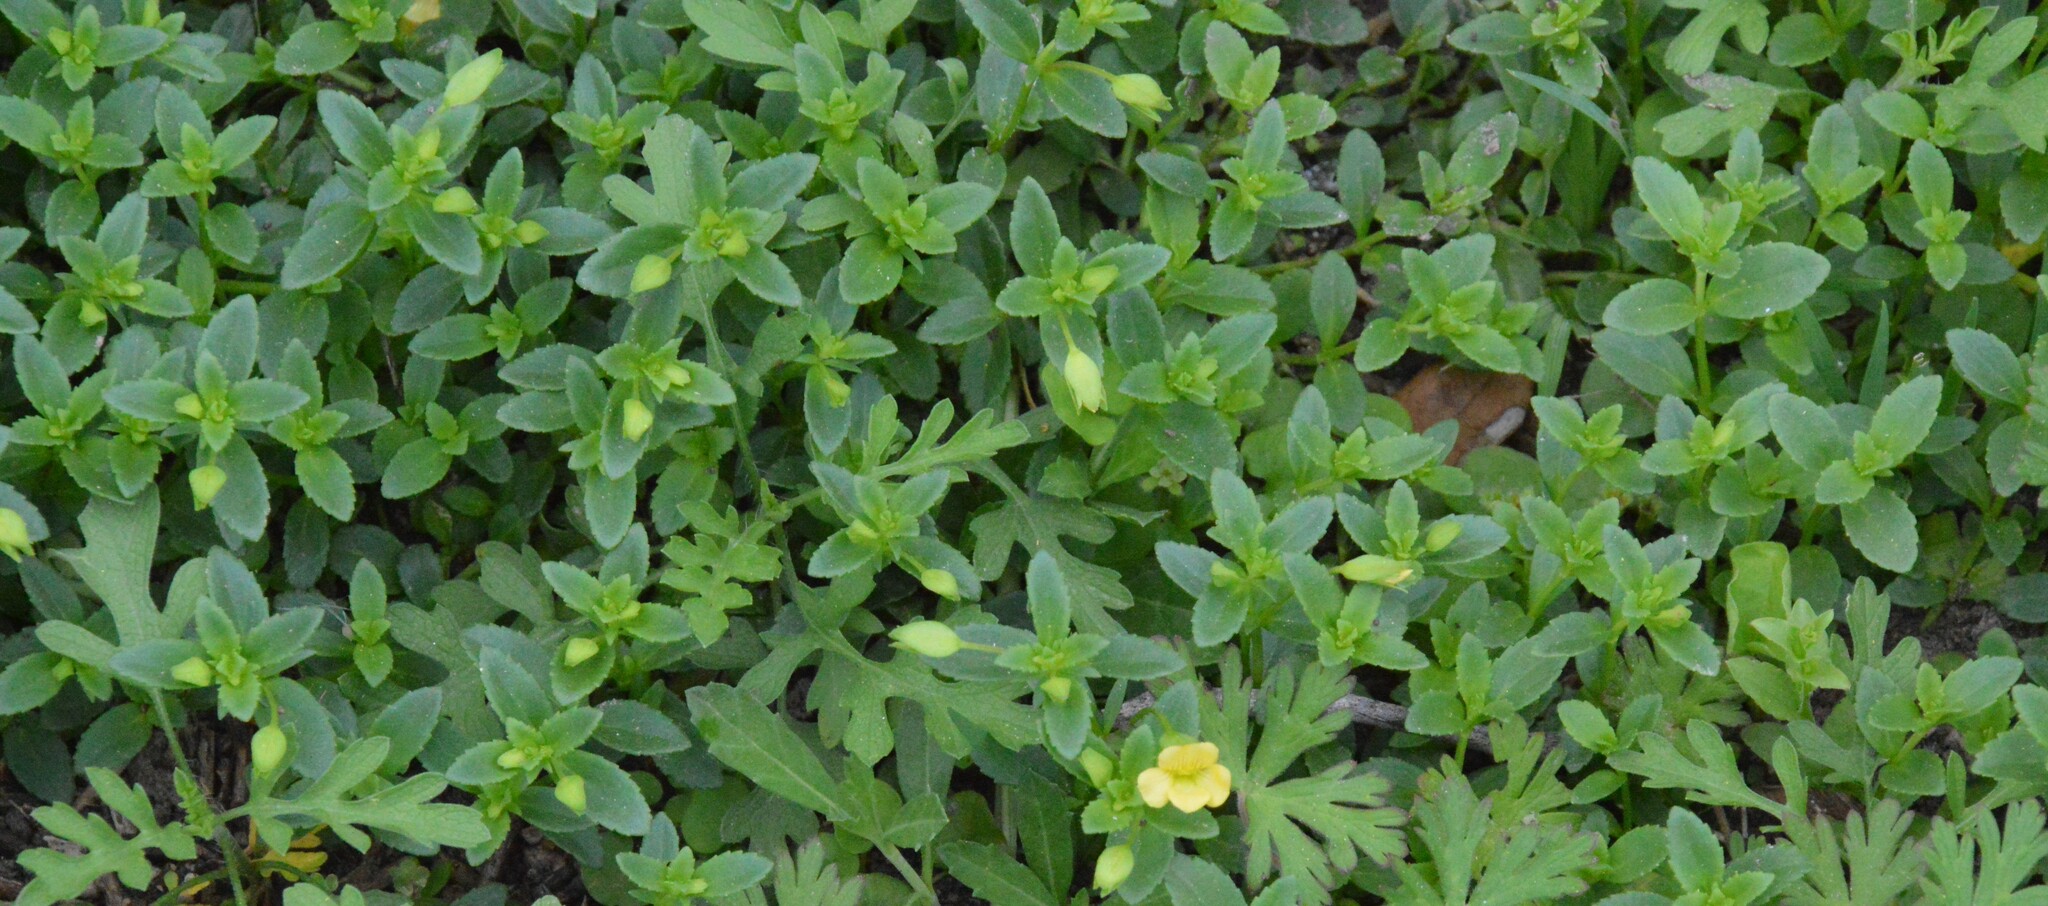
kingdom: Plantae
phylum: Tracheophyta
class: Magnoliopsida
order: Lamiales
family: Plantaginaceae
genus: Mecardonia
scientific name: Mecardonia procumbens
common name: Baby jump-up
